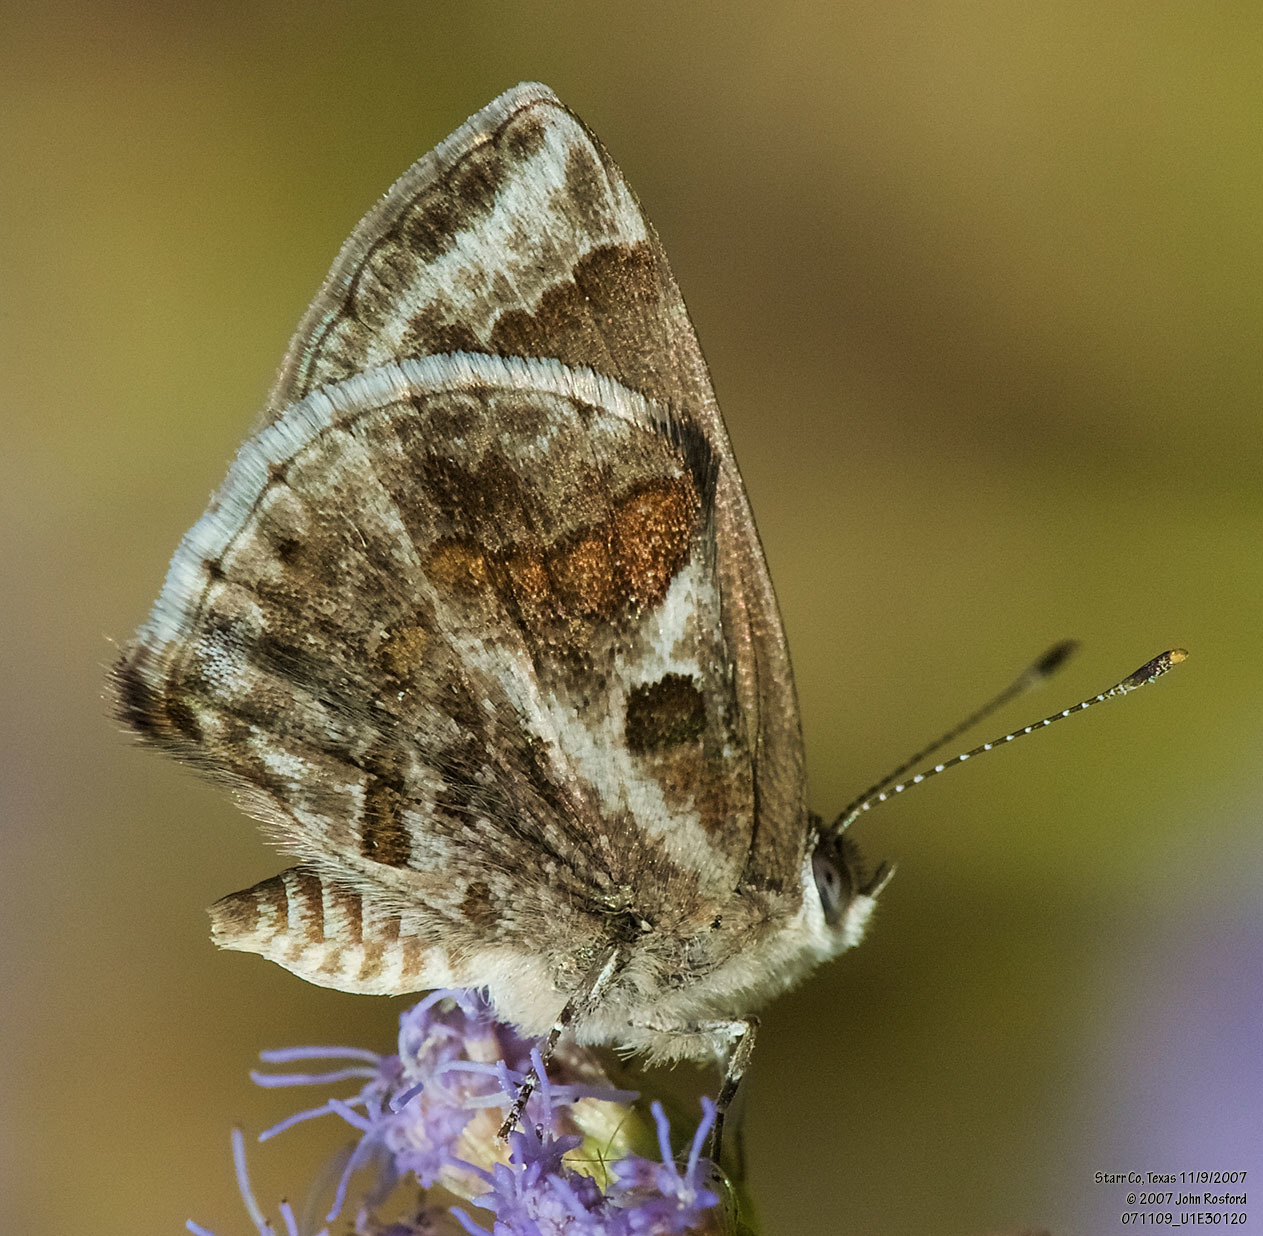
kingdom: Animalia
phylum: Arthropoda
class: Insecta
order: Lepidoptera
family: Lycaenidae
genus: Strymon
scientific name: Strymon bazochii
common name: Lantana scrub-hairstreak
